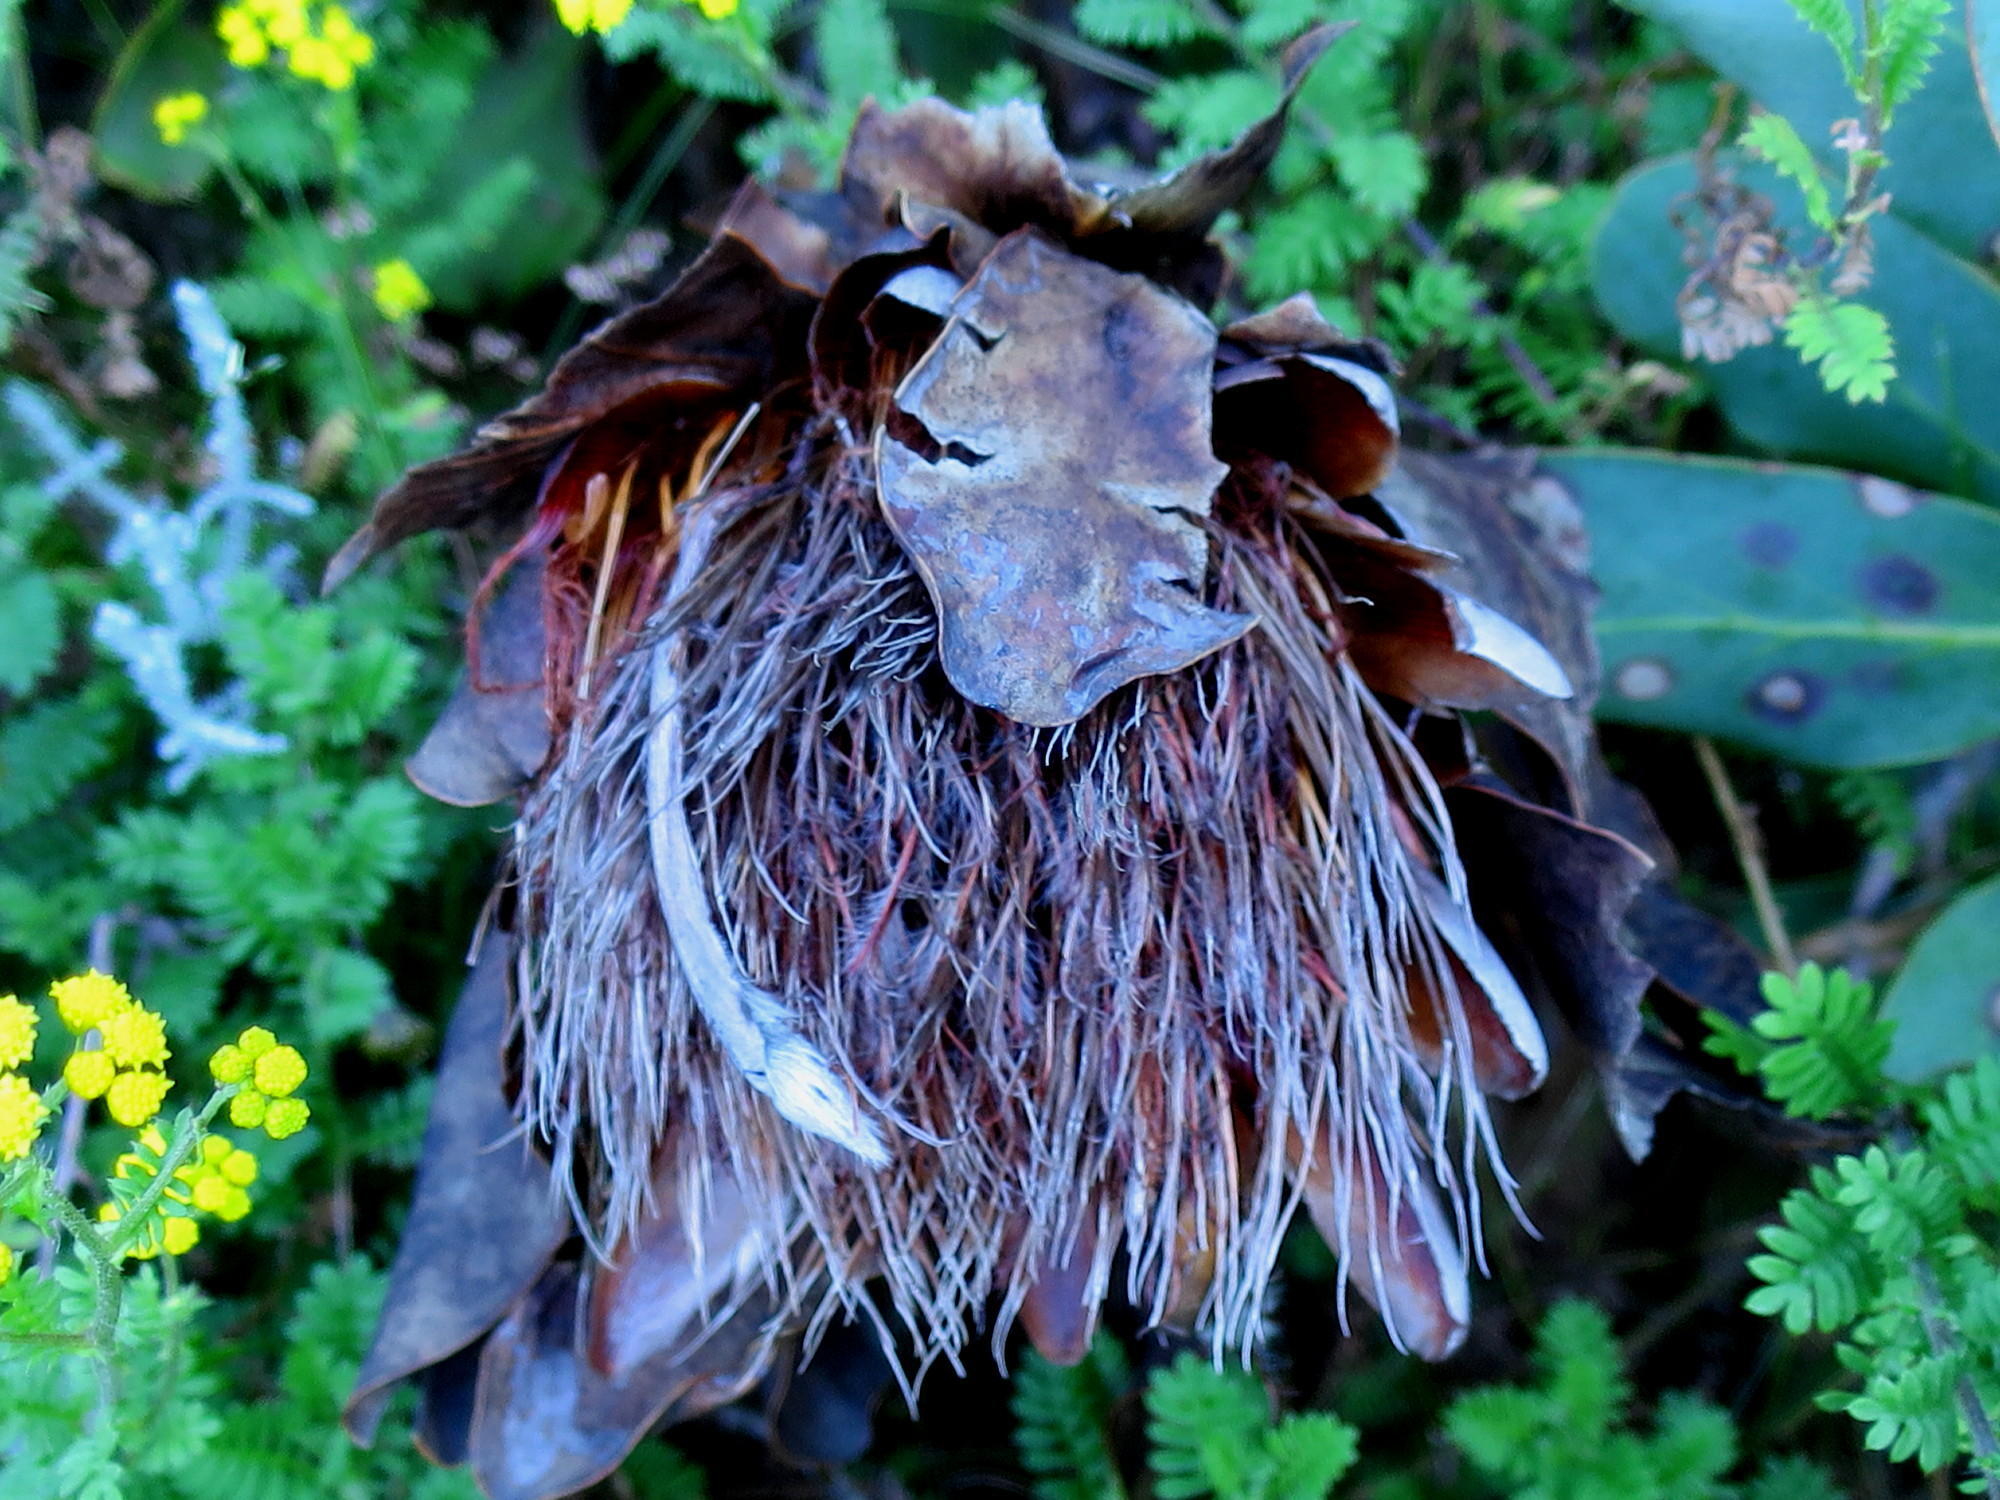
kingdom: Plantae
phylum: Tracheophyta
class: Magnoliopsida
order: Proteales
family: Proteaceae
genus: Protea
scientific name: Protea grandiceps
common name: Red sugarbush
